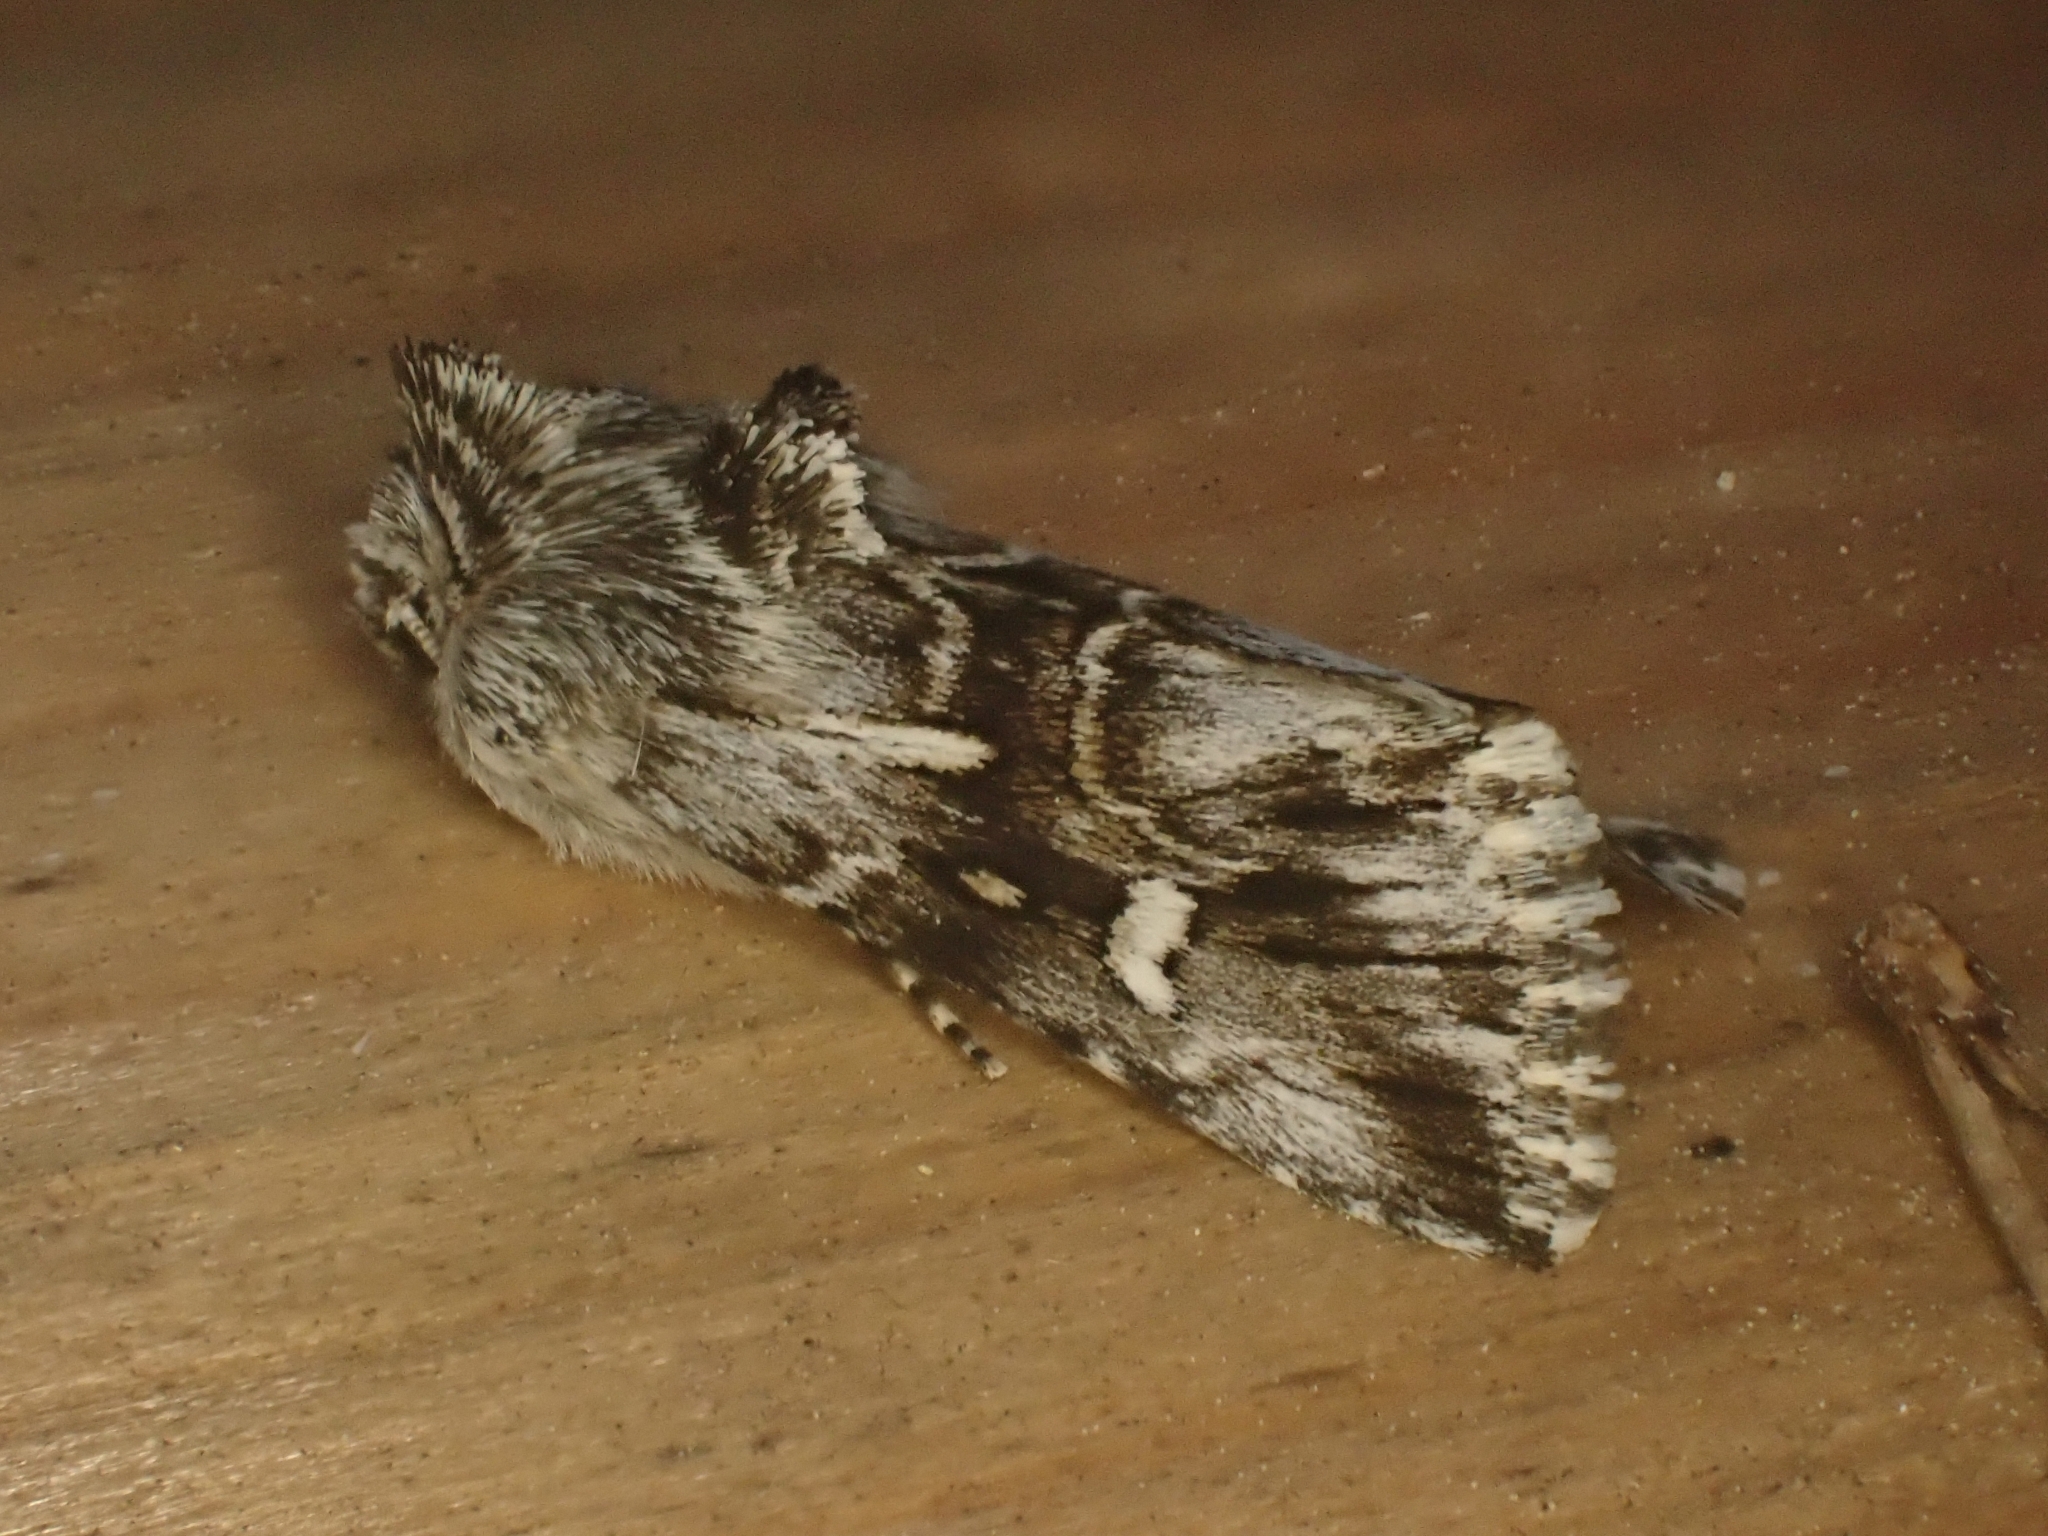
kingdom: Animalia
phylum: Arthropoda
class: Insecta
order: Lepidoptera
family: Noctuidae
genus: Calophasia
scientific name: Calophasia lunula
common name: Toadflax brocade
